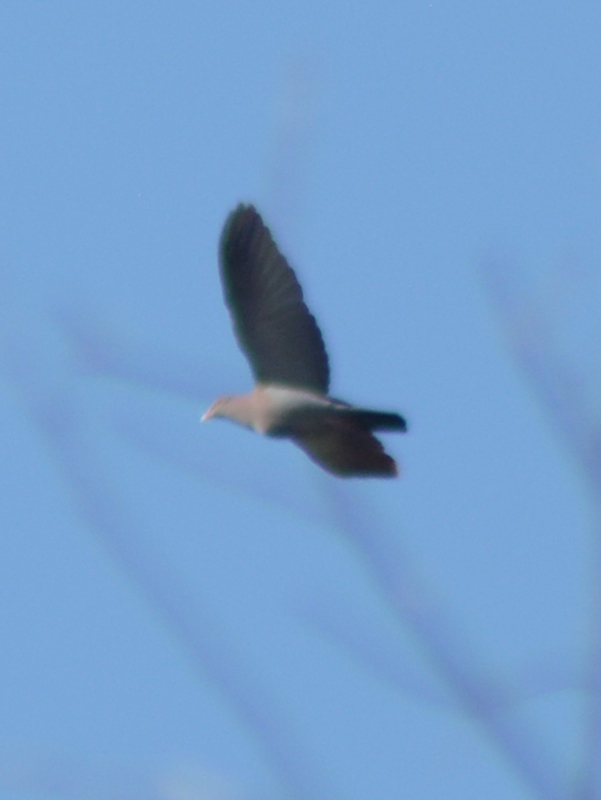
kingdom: Animalia
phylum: Chordata
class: Aves
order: Columbiformes
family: Columbidae
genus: Patagioenas
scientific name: Patagioenas flavirostris
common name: Red-billed pigeon
